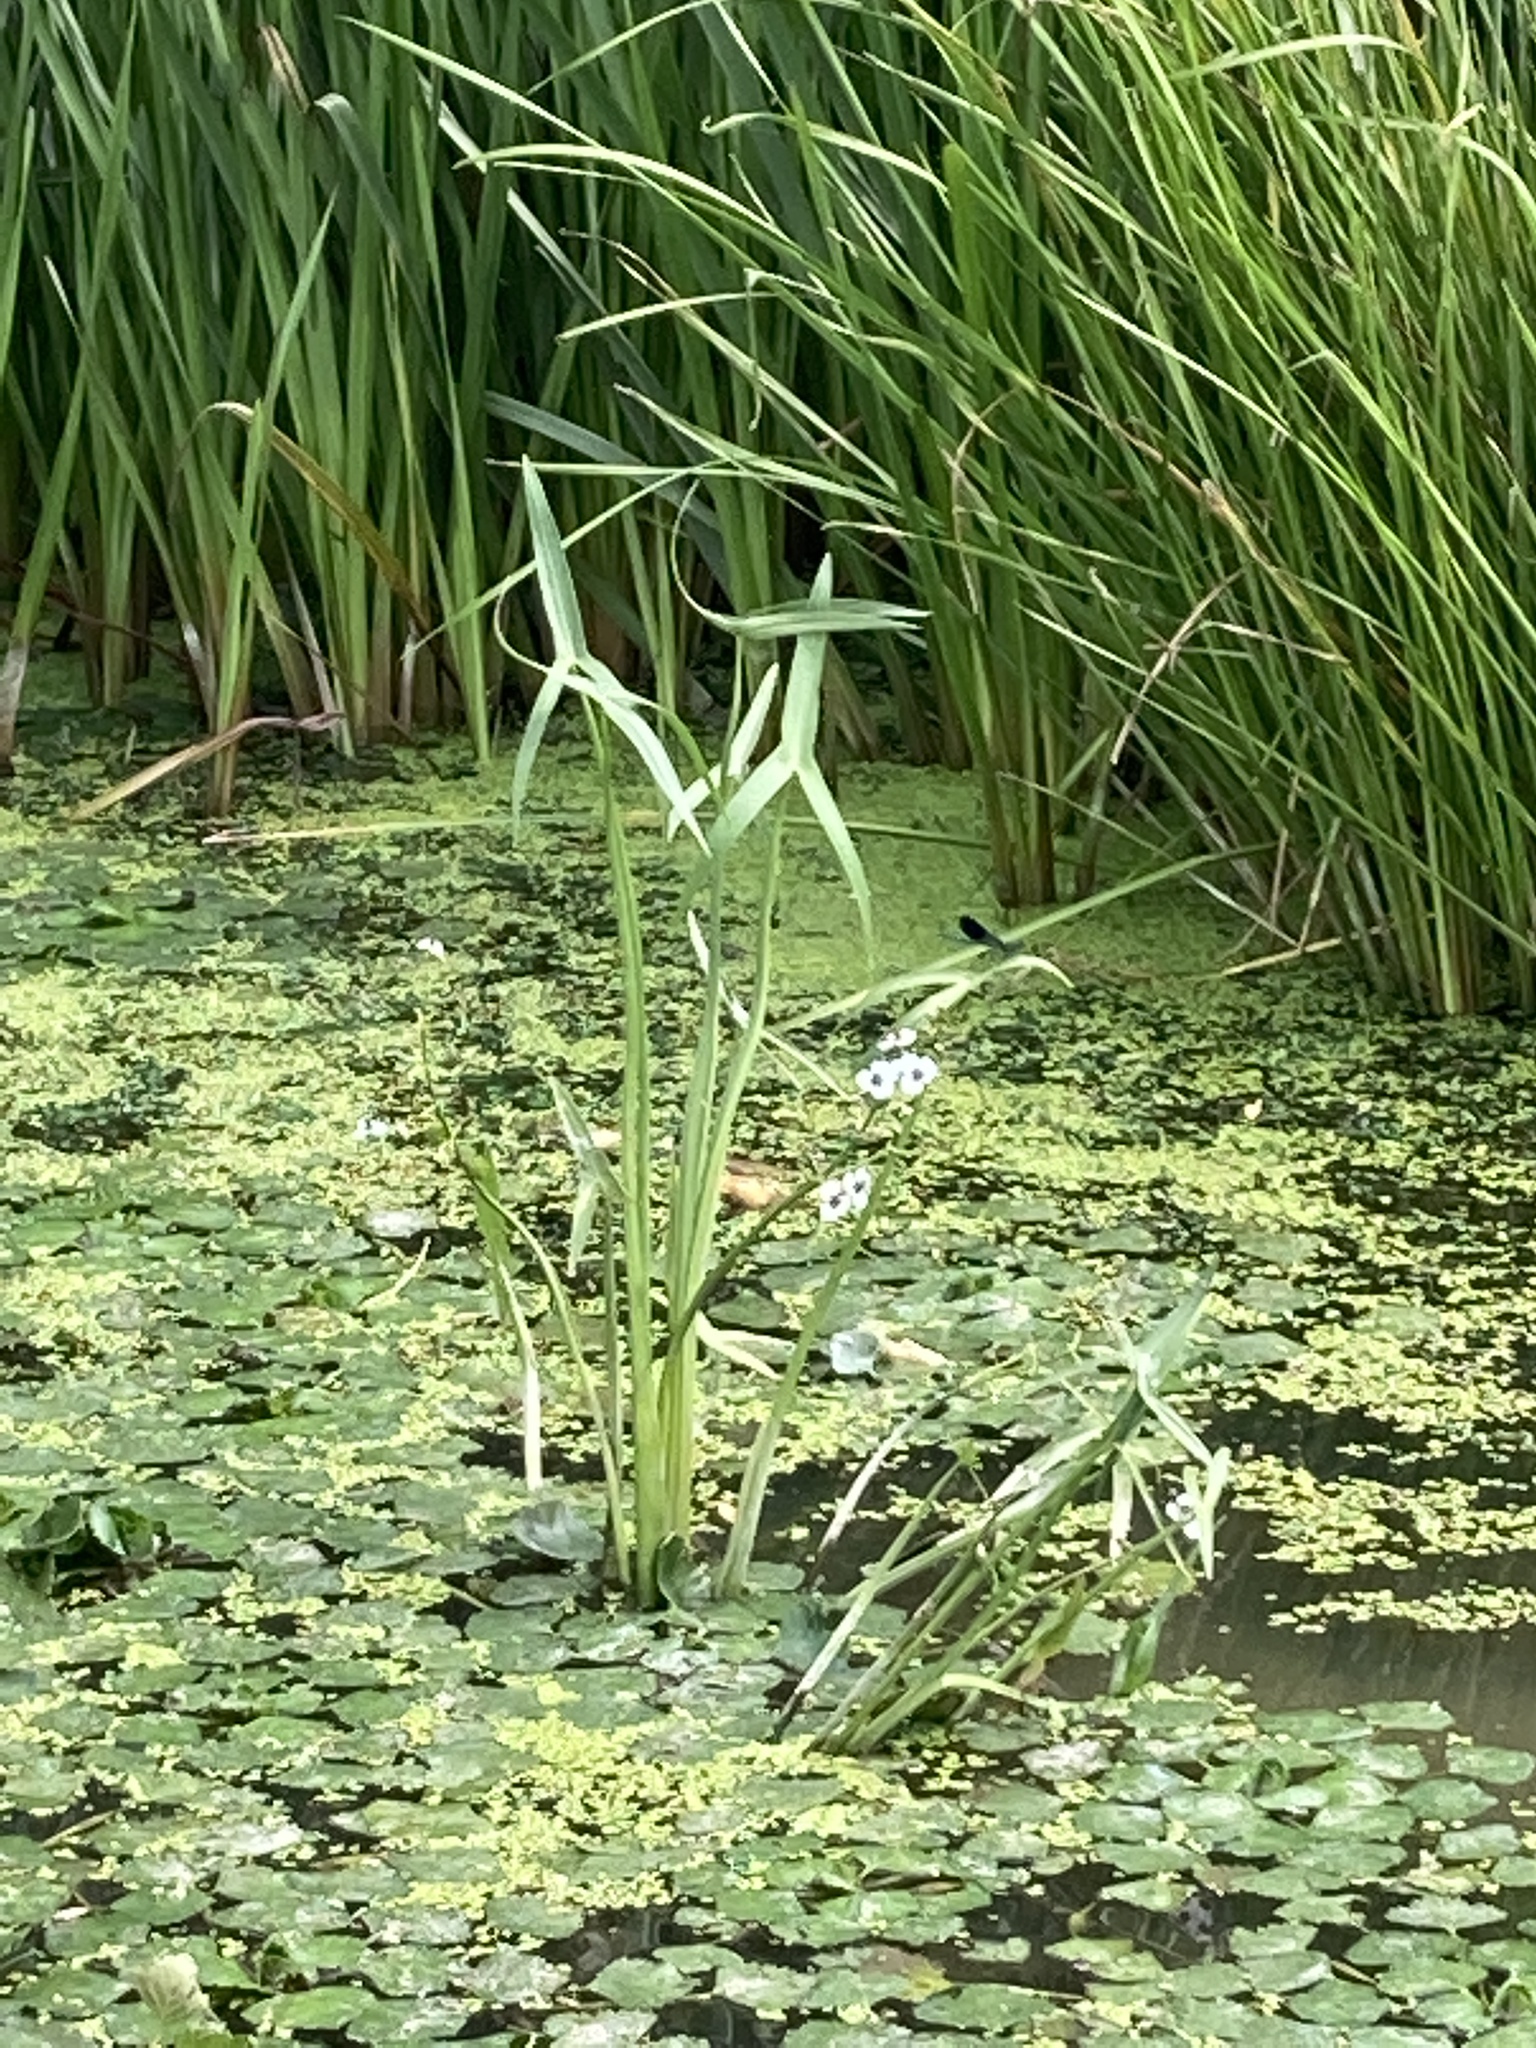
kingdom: Plantae
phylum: Tracheophyta
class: Liliopsida
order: Alismatales
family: Alismataceae
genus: Sagittaria
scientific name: Sagittaria sagittifolia
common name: Arrowhead
